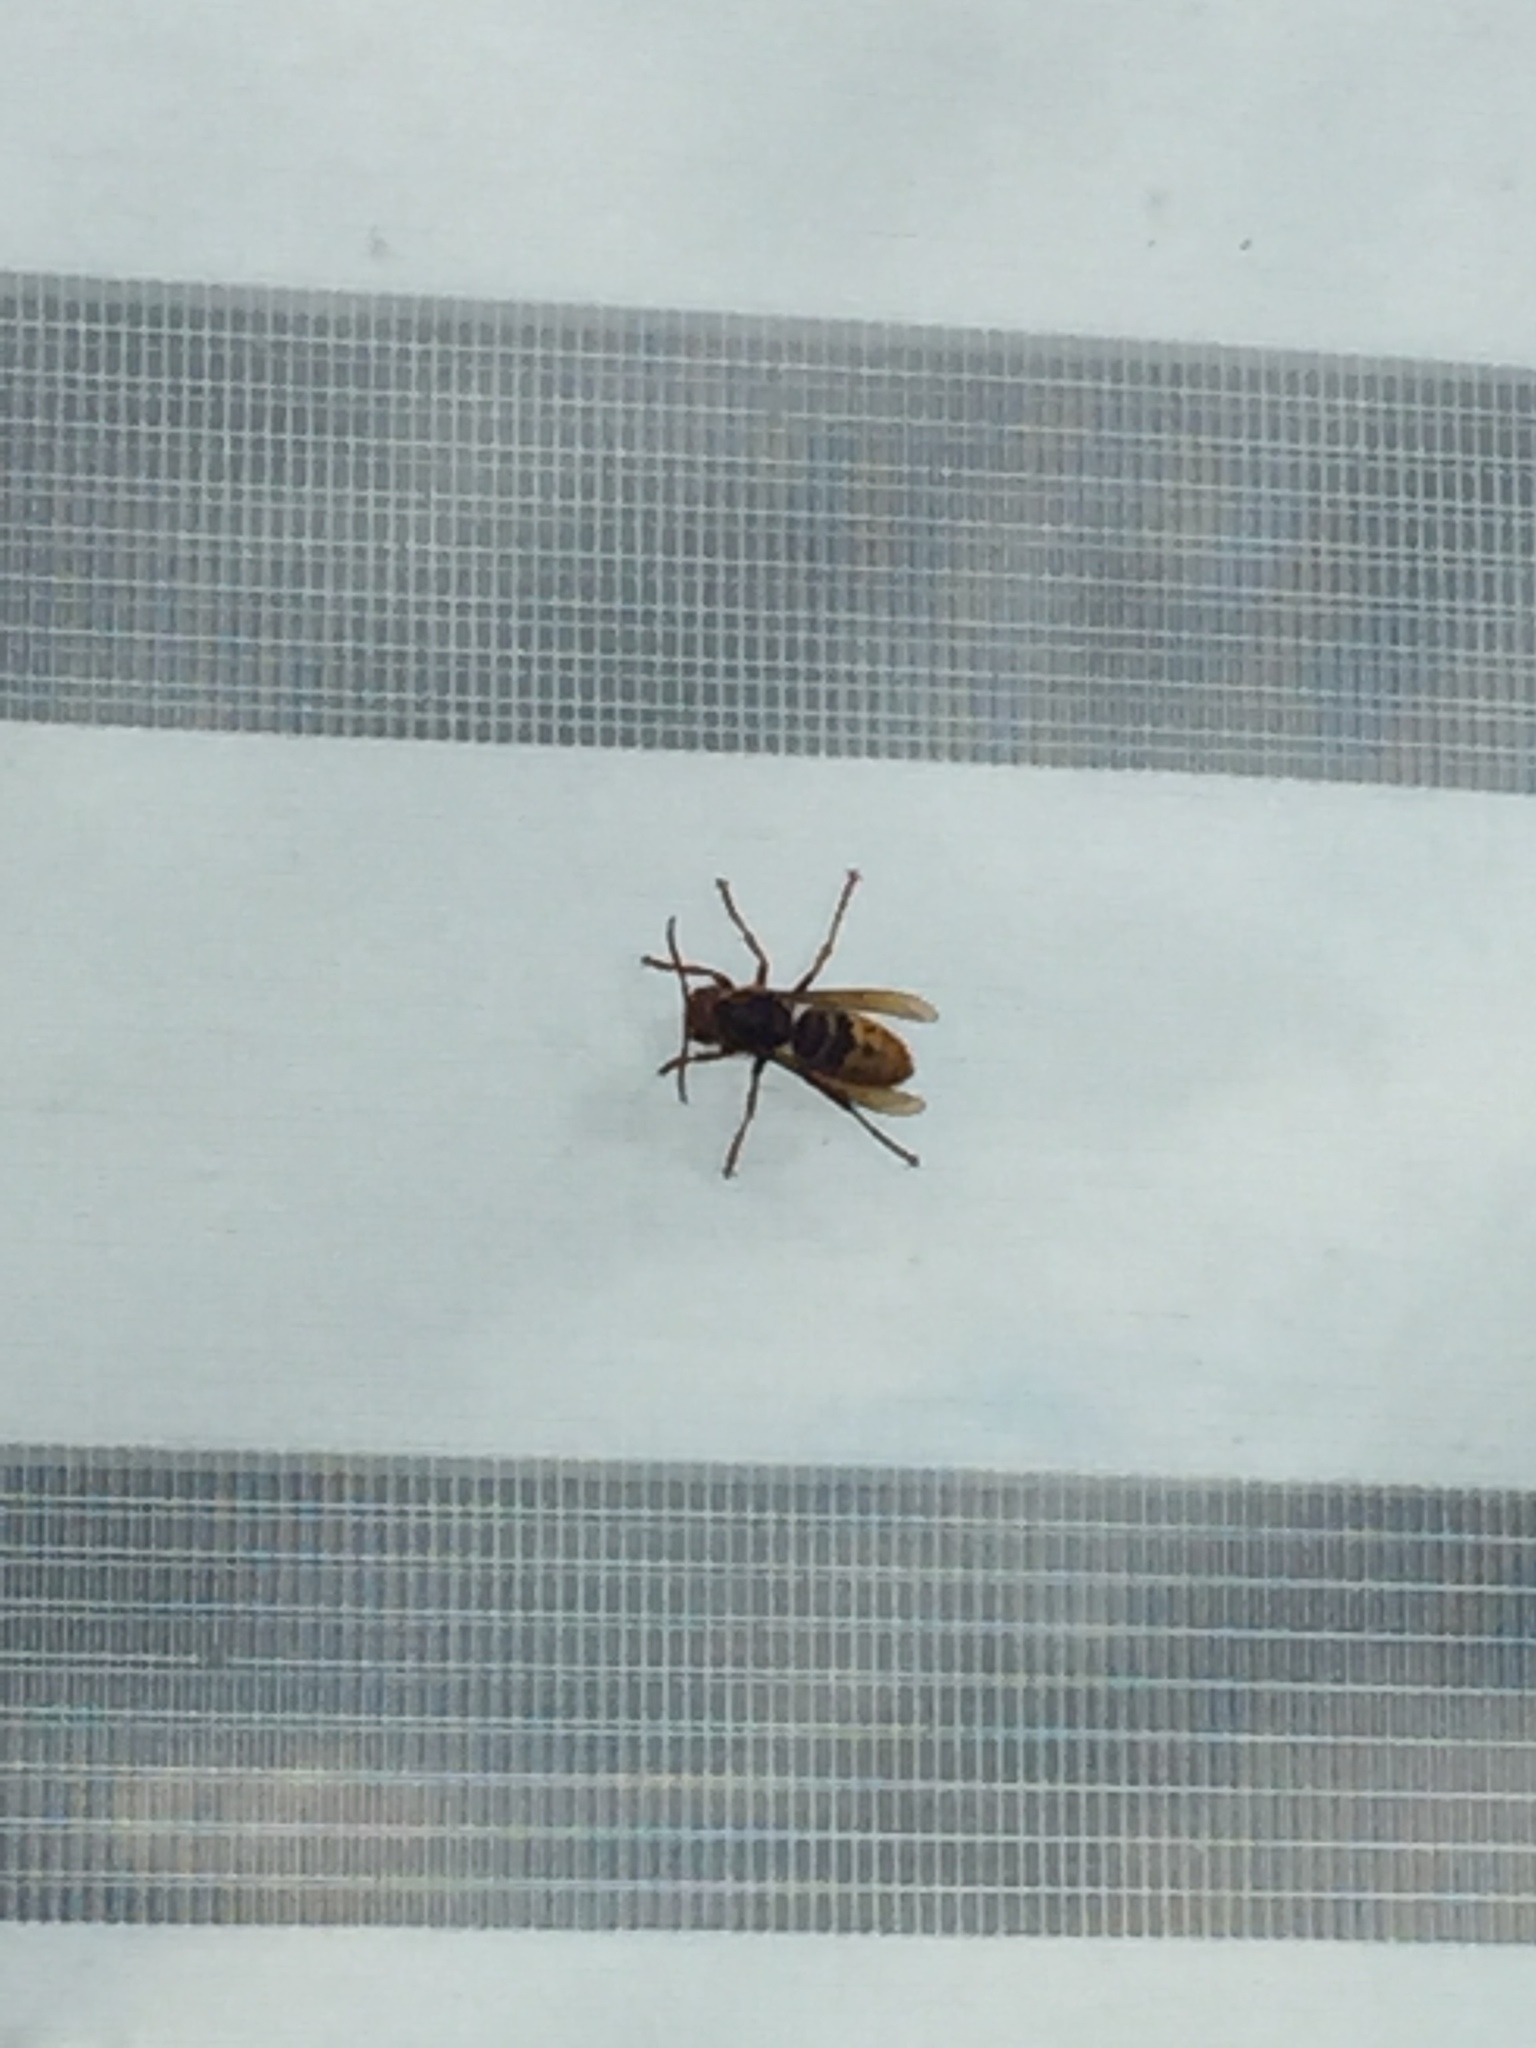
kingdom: Animalia
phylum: Arthropoda
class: Insecta
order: Hymenoptera
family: Vespidae
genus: Vespa
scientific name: Vespa crabro
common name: Hornet
